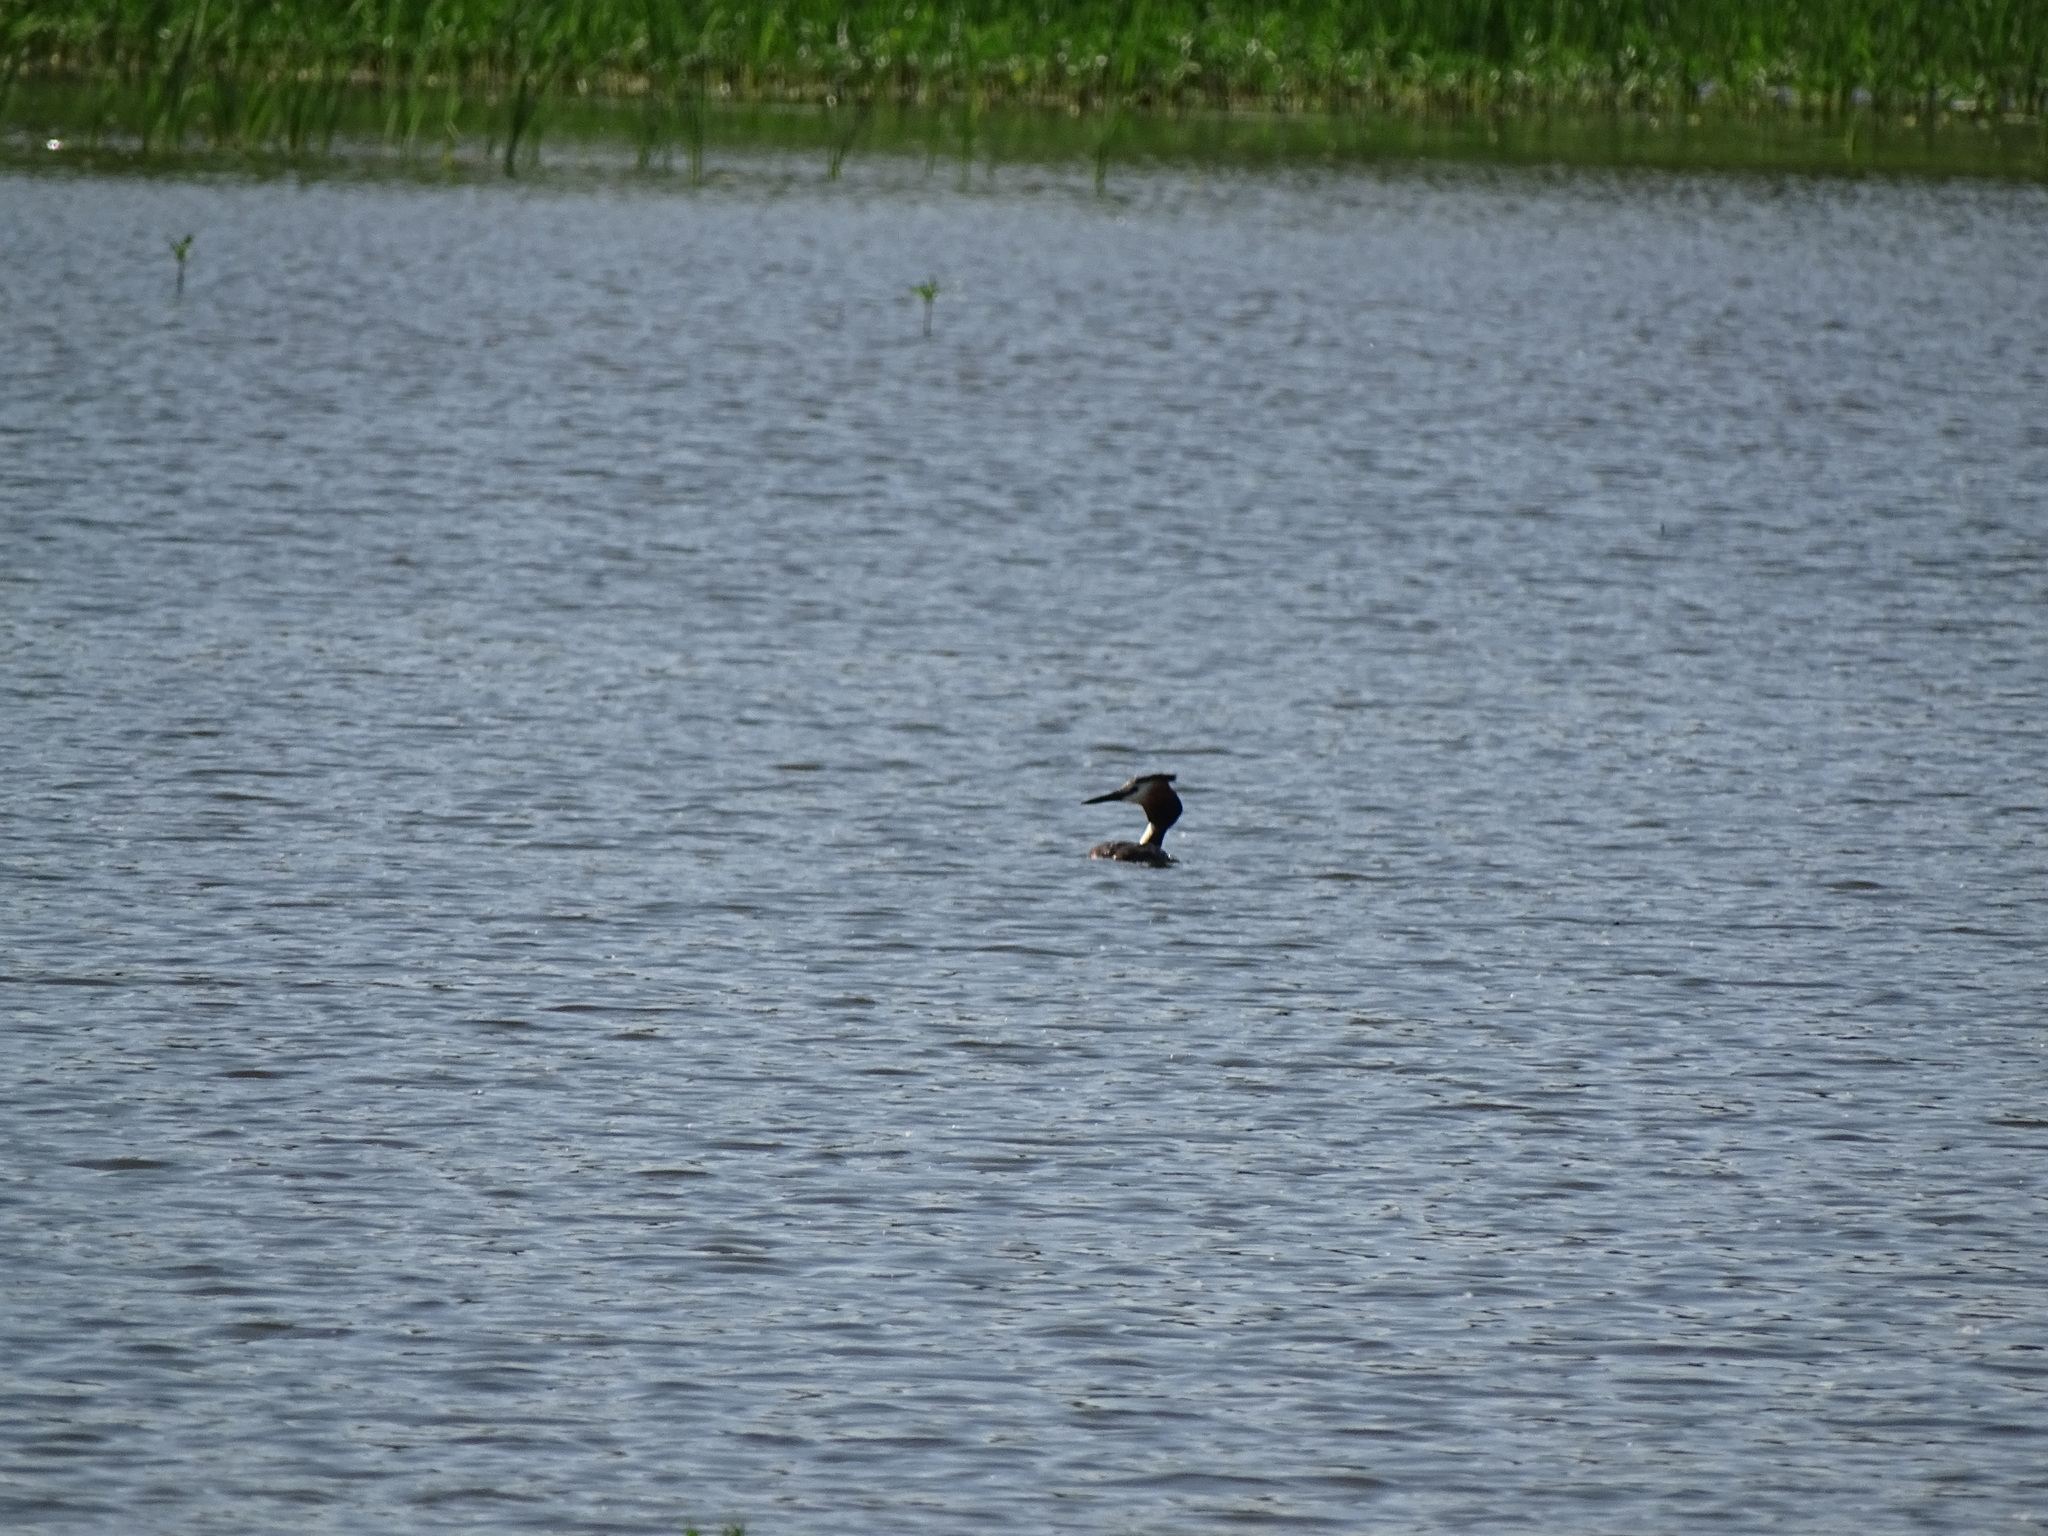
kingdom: Animalia
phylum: Chordata
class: Aves
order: Podicipediformes
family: Podicipedidae
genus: Podiceps
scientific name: Podiceps cristatus
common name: Great crested grebe
